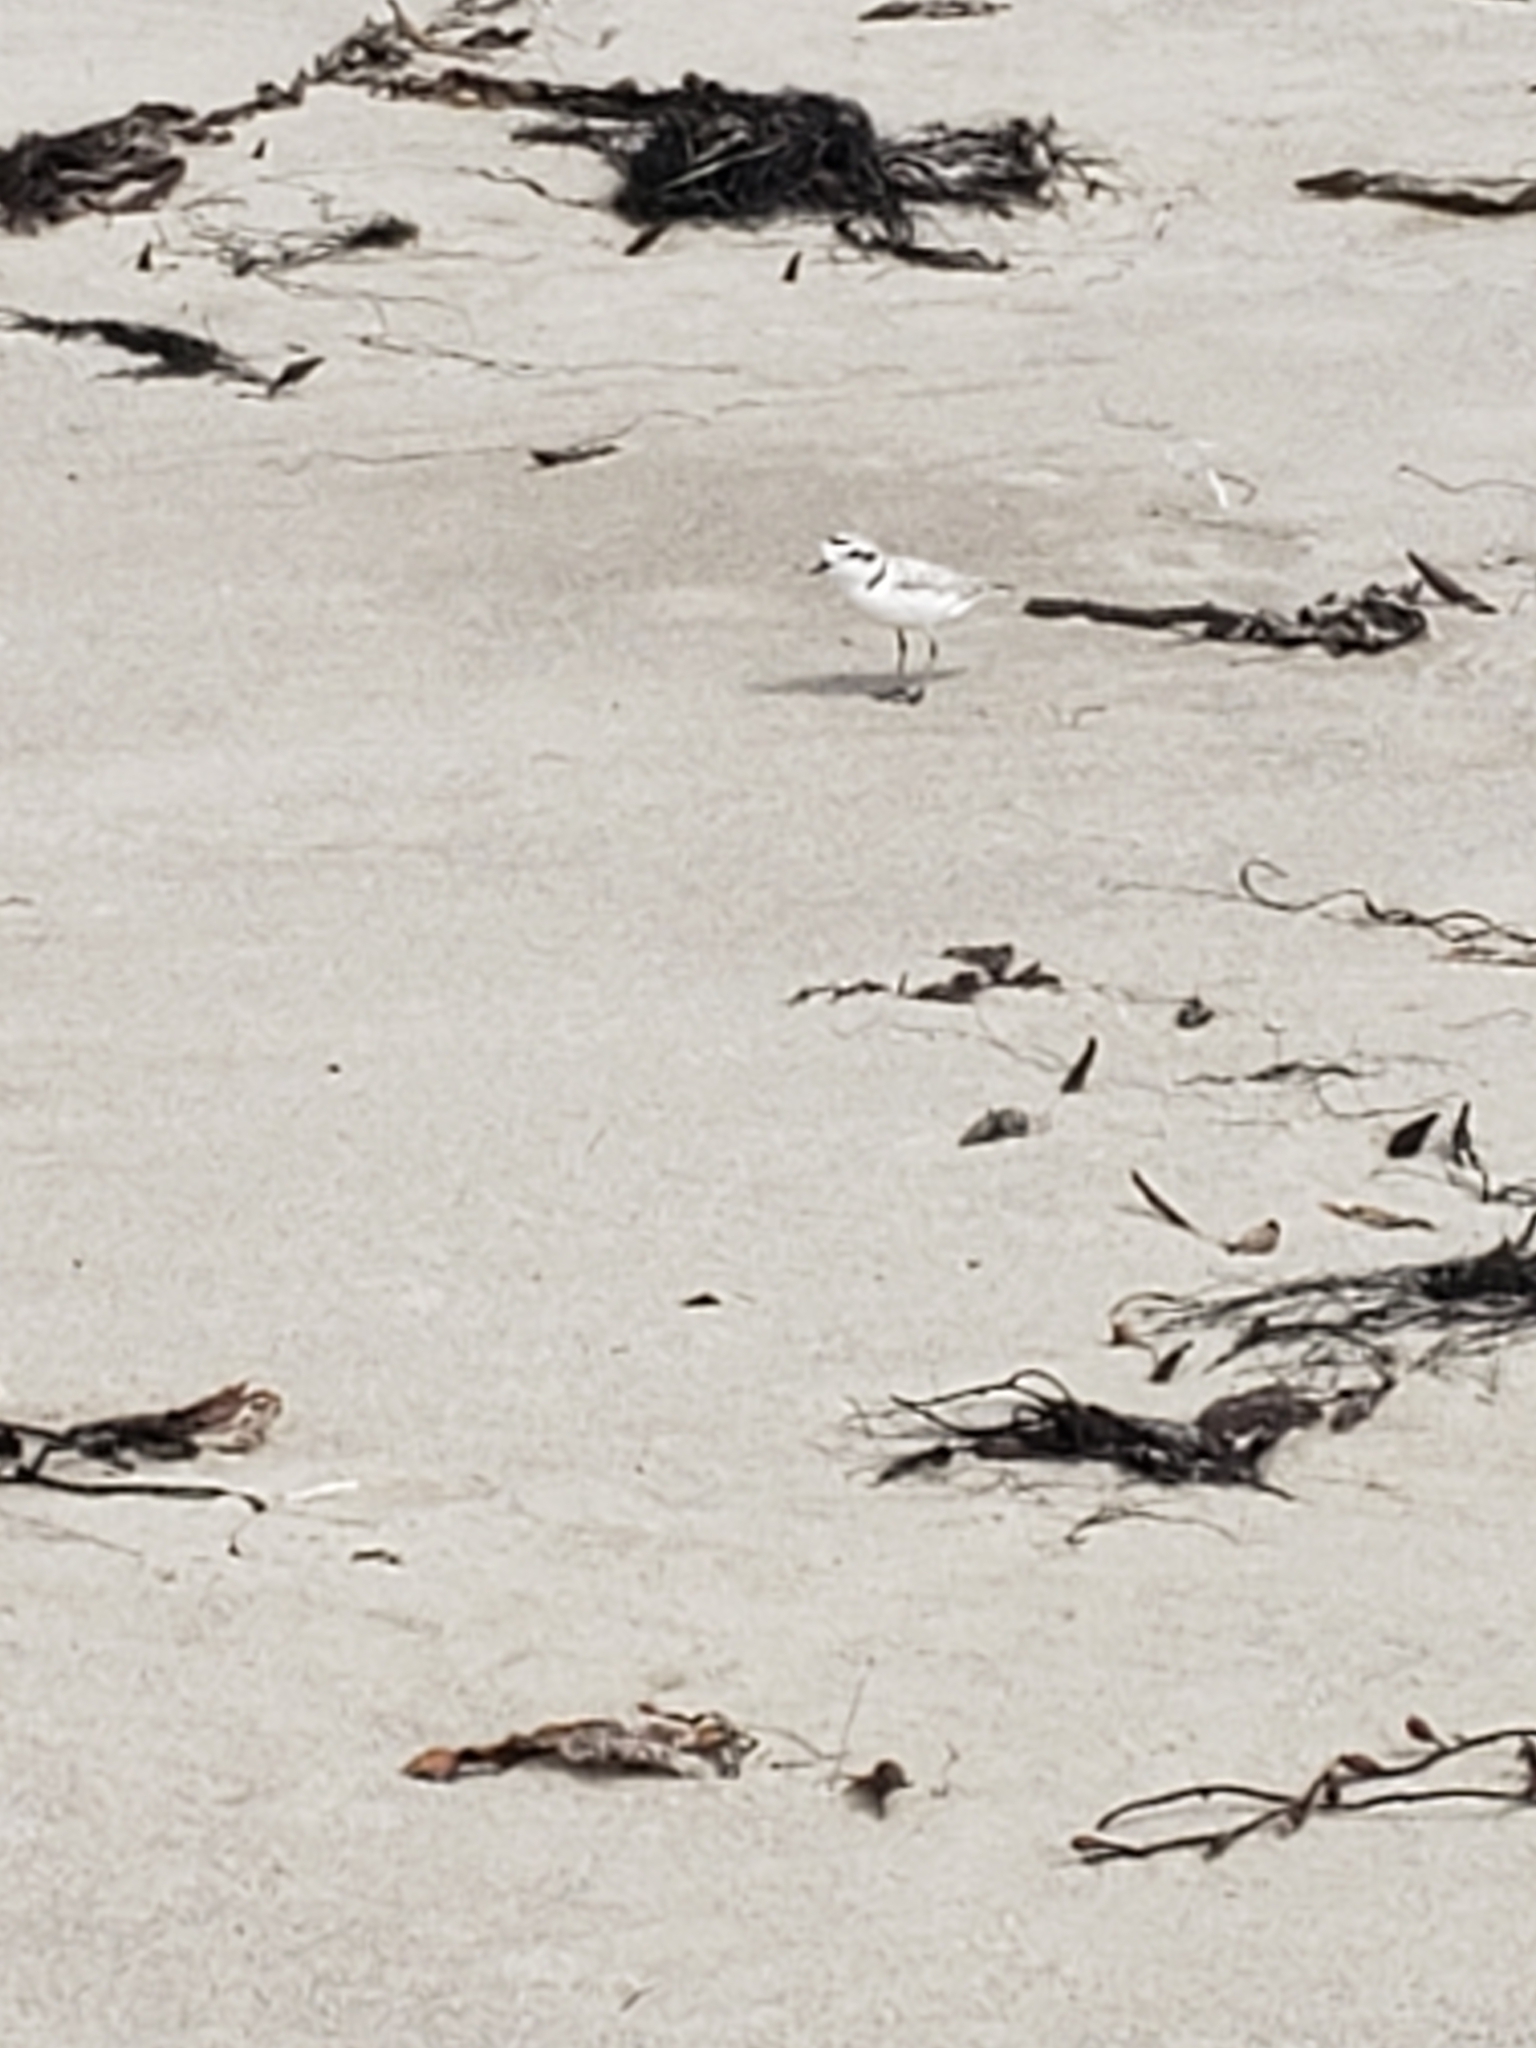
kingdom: Animalia
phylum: Chordata
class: Aves
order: Charadriiformes
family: Charadriidae
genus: Anarhynchus
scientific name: Anarhynchus
